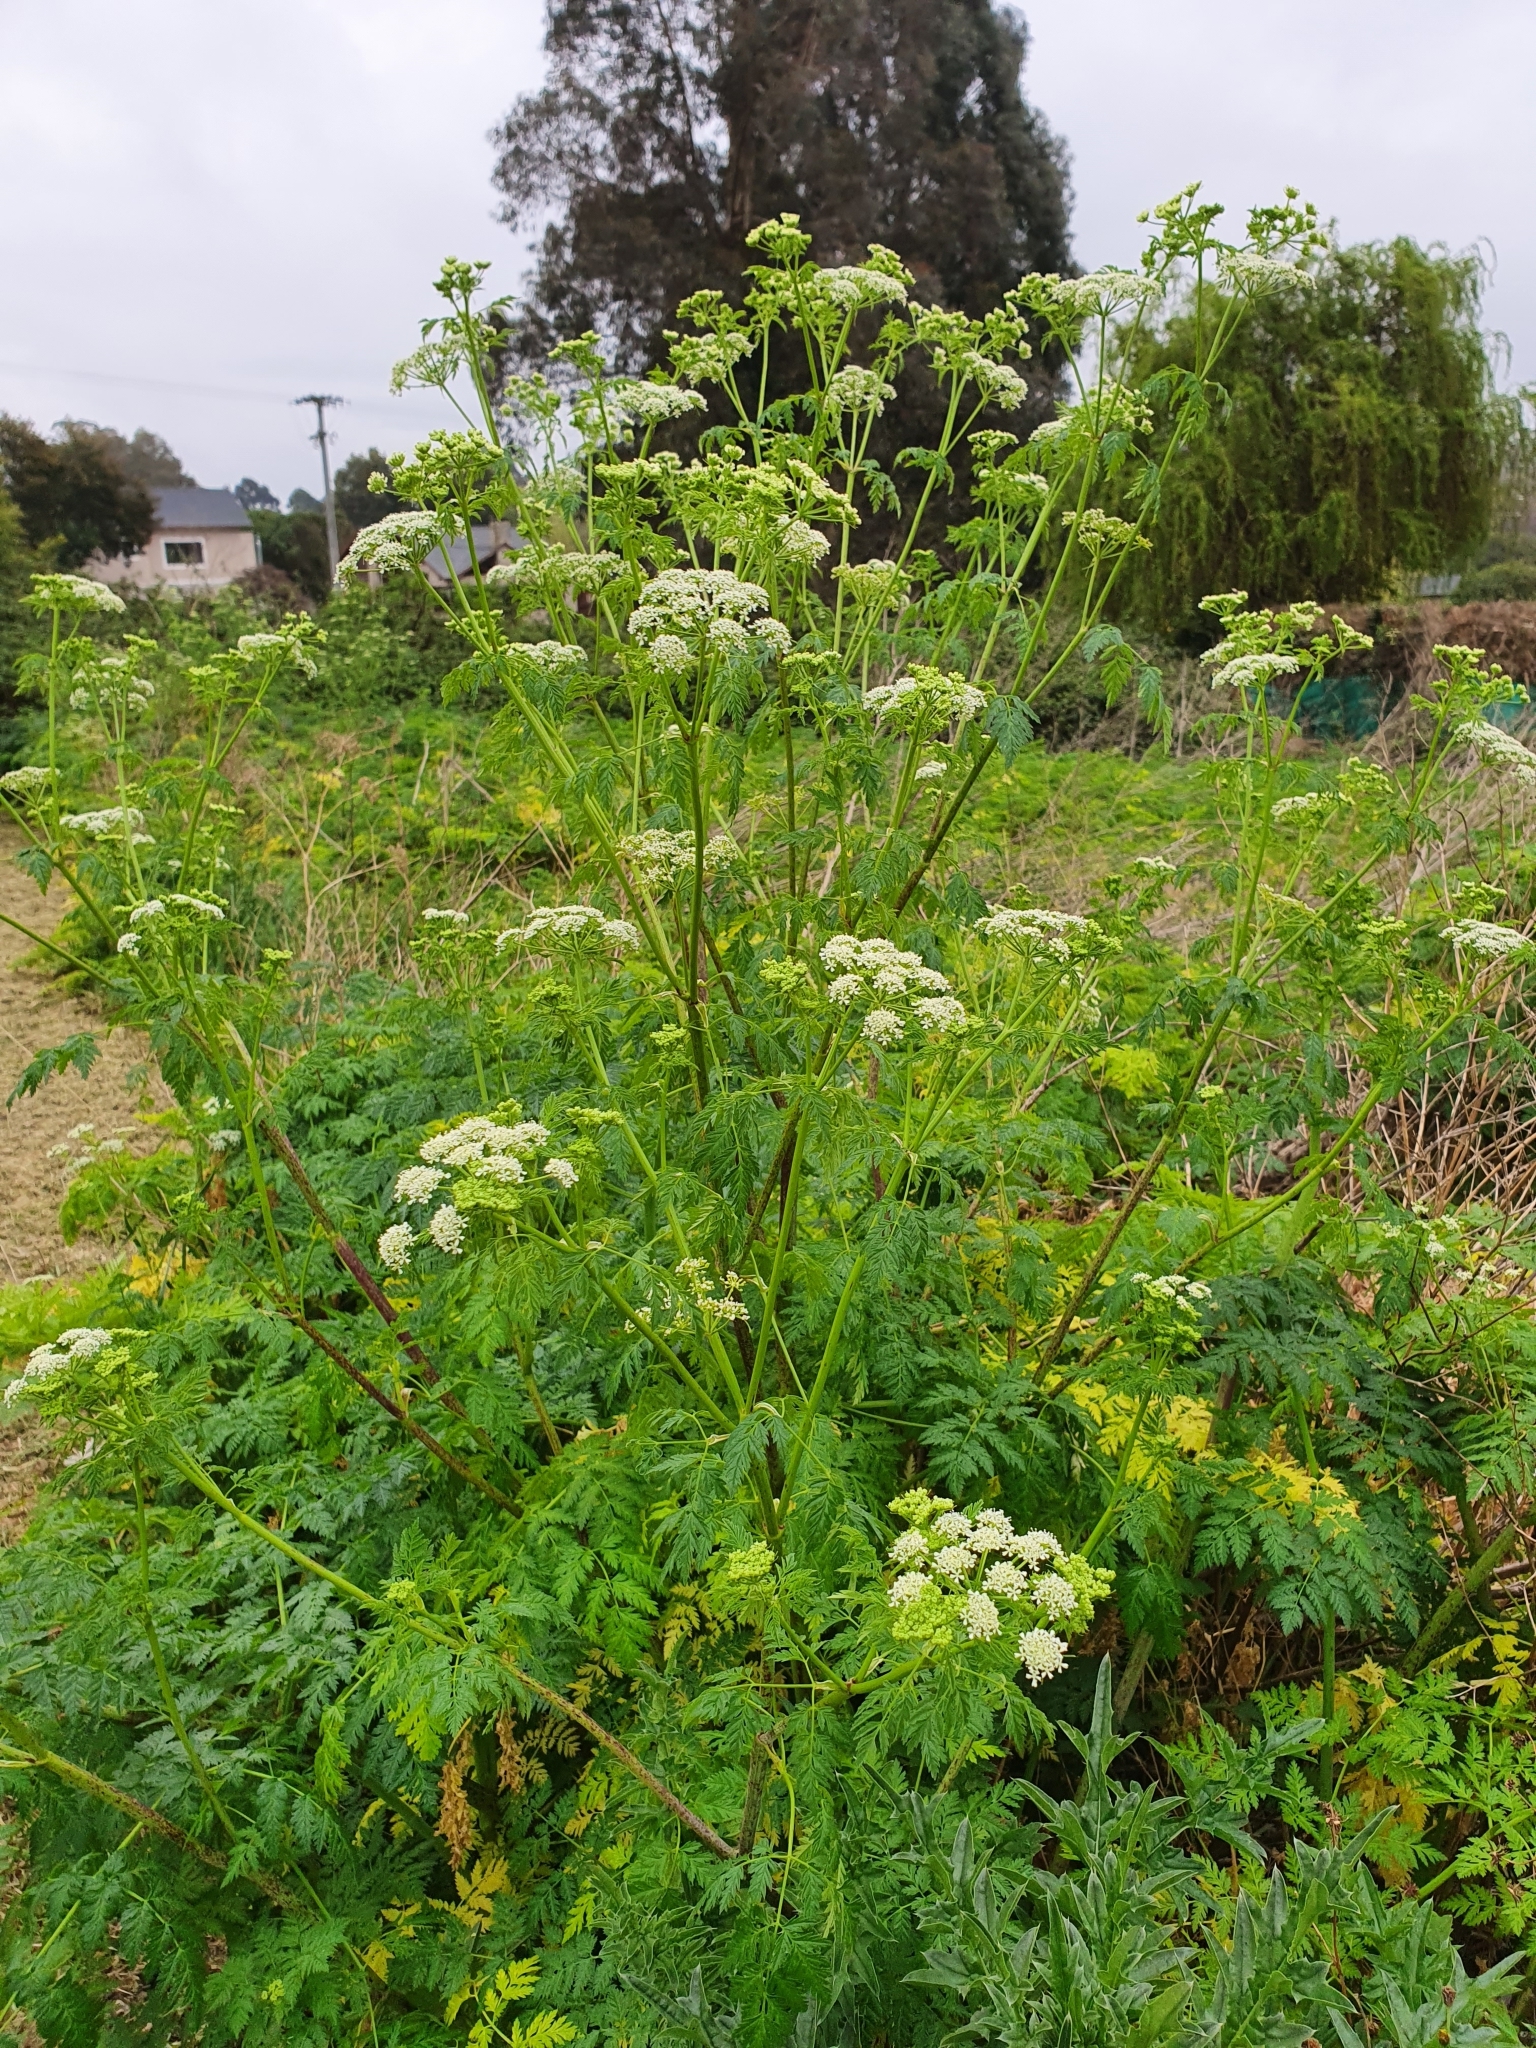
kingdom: Plantae
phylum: Tracheophyta
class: Magnoliopsida
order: Apiales
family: Apiaceae
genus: Conium
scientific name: Conium maculatum
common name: Hemlock
